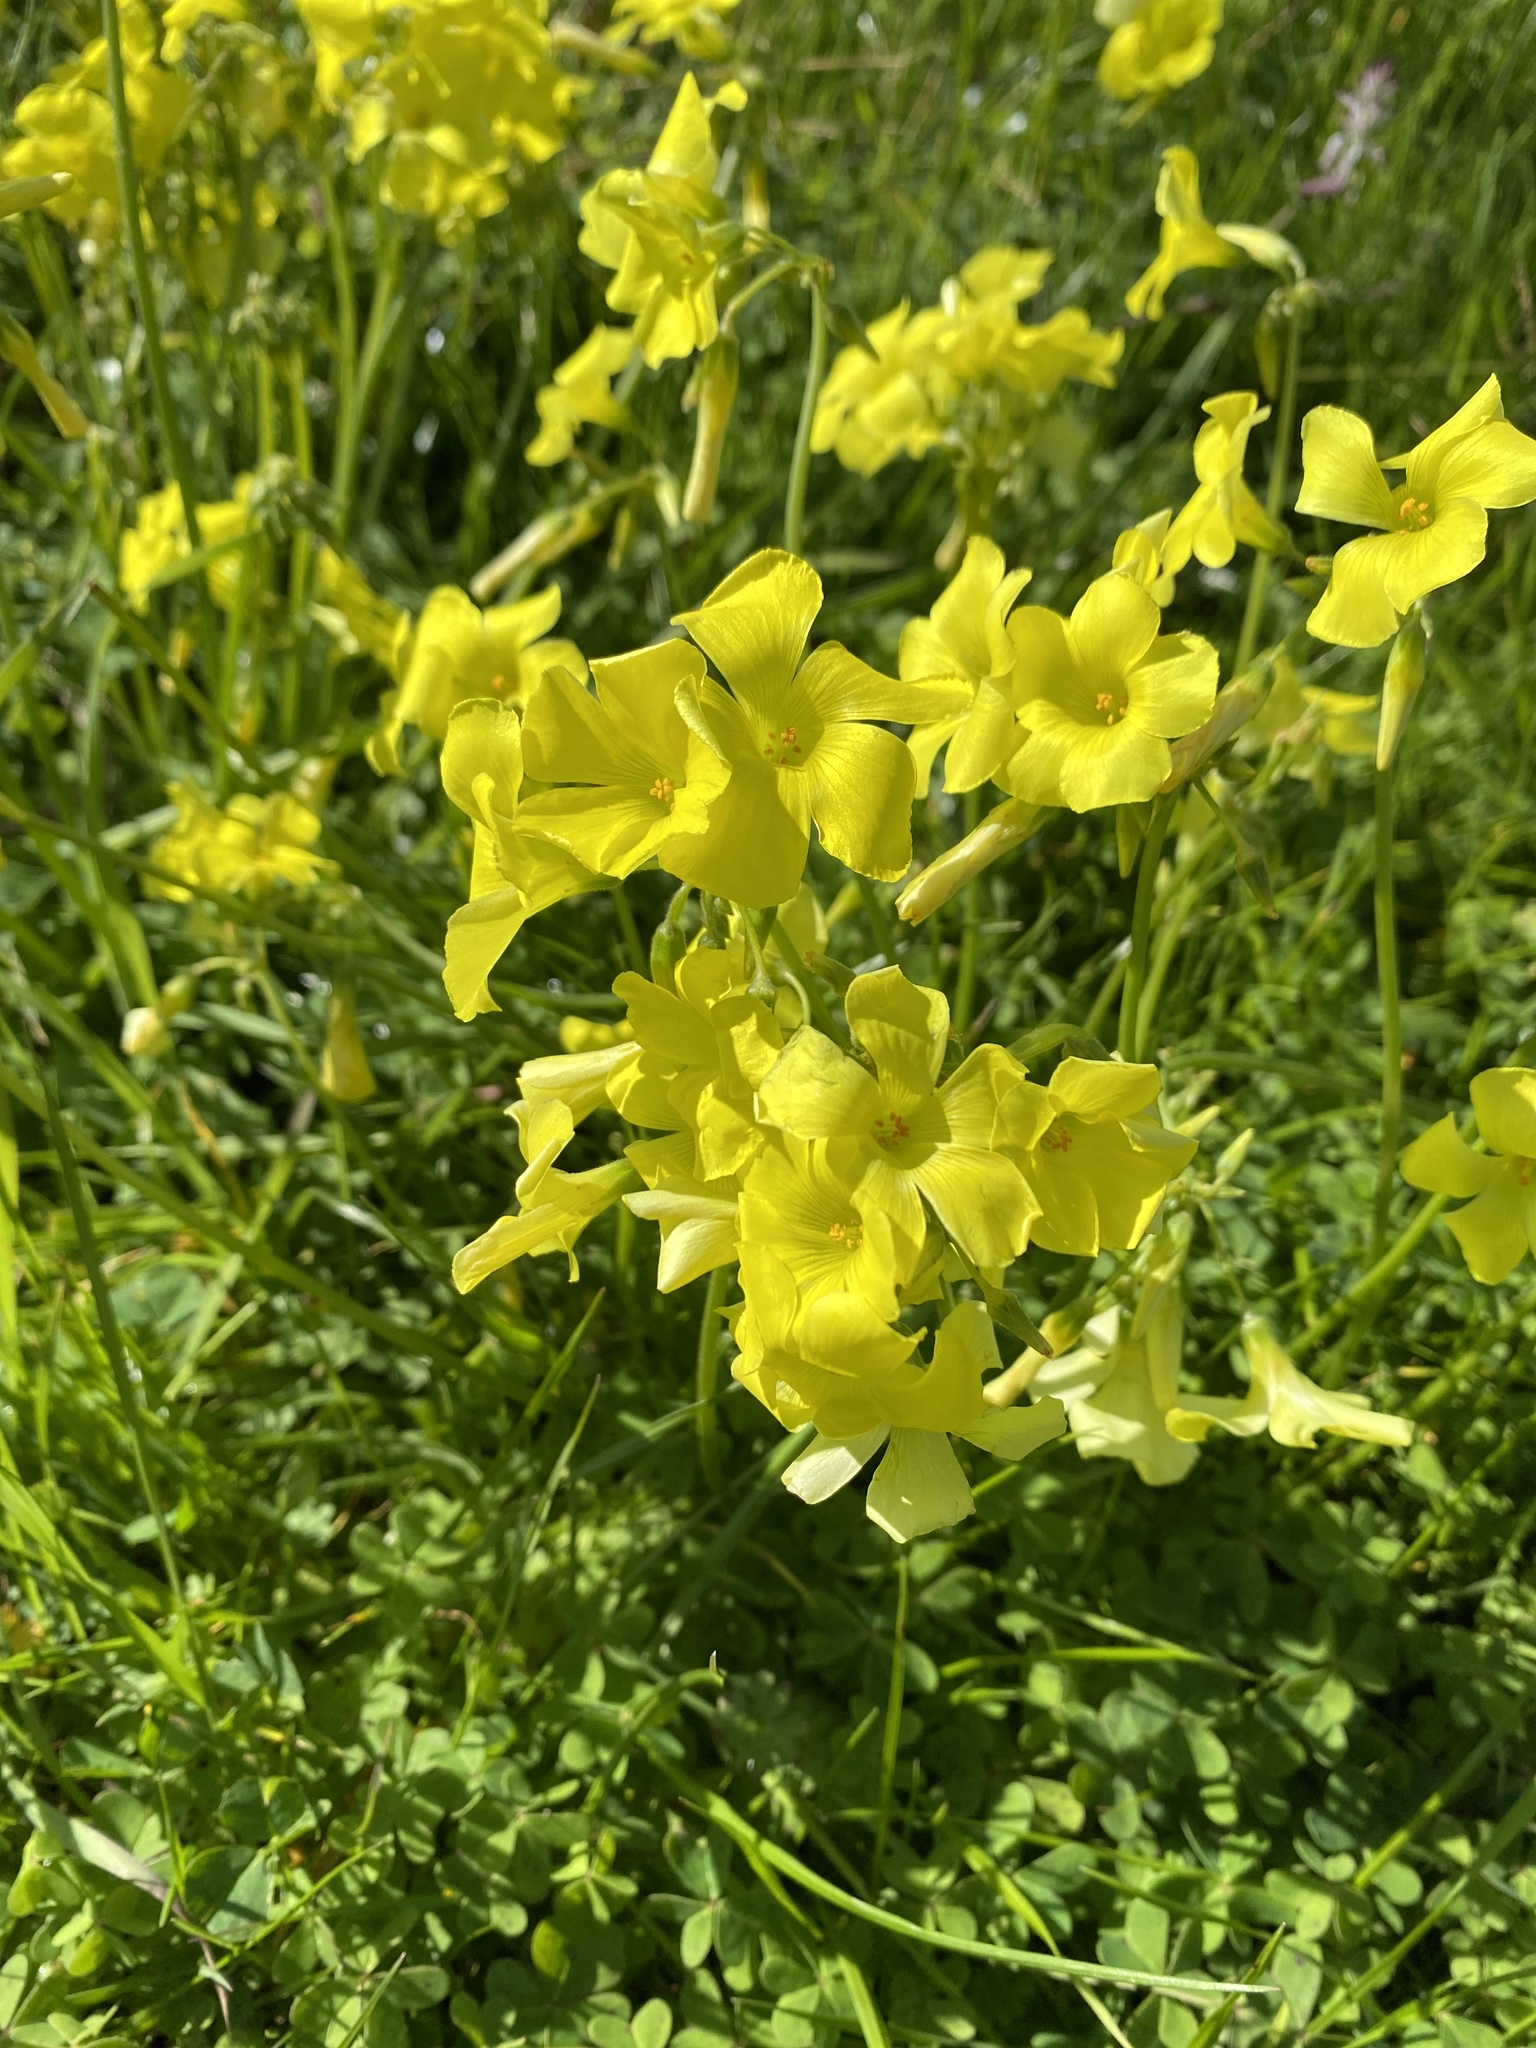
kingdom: Plantae
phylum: Tracheophyta
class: Magnoliopsida
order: Oxalidales
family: Oxalidaceae
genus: Oxalis
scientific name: Oxalis pes-caprae
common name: Bermuda-buttercup
